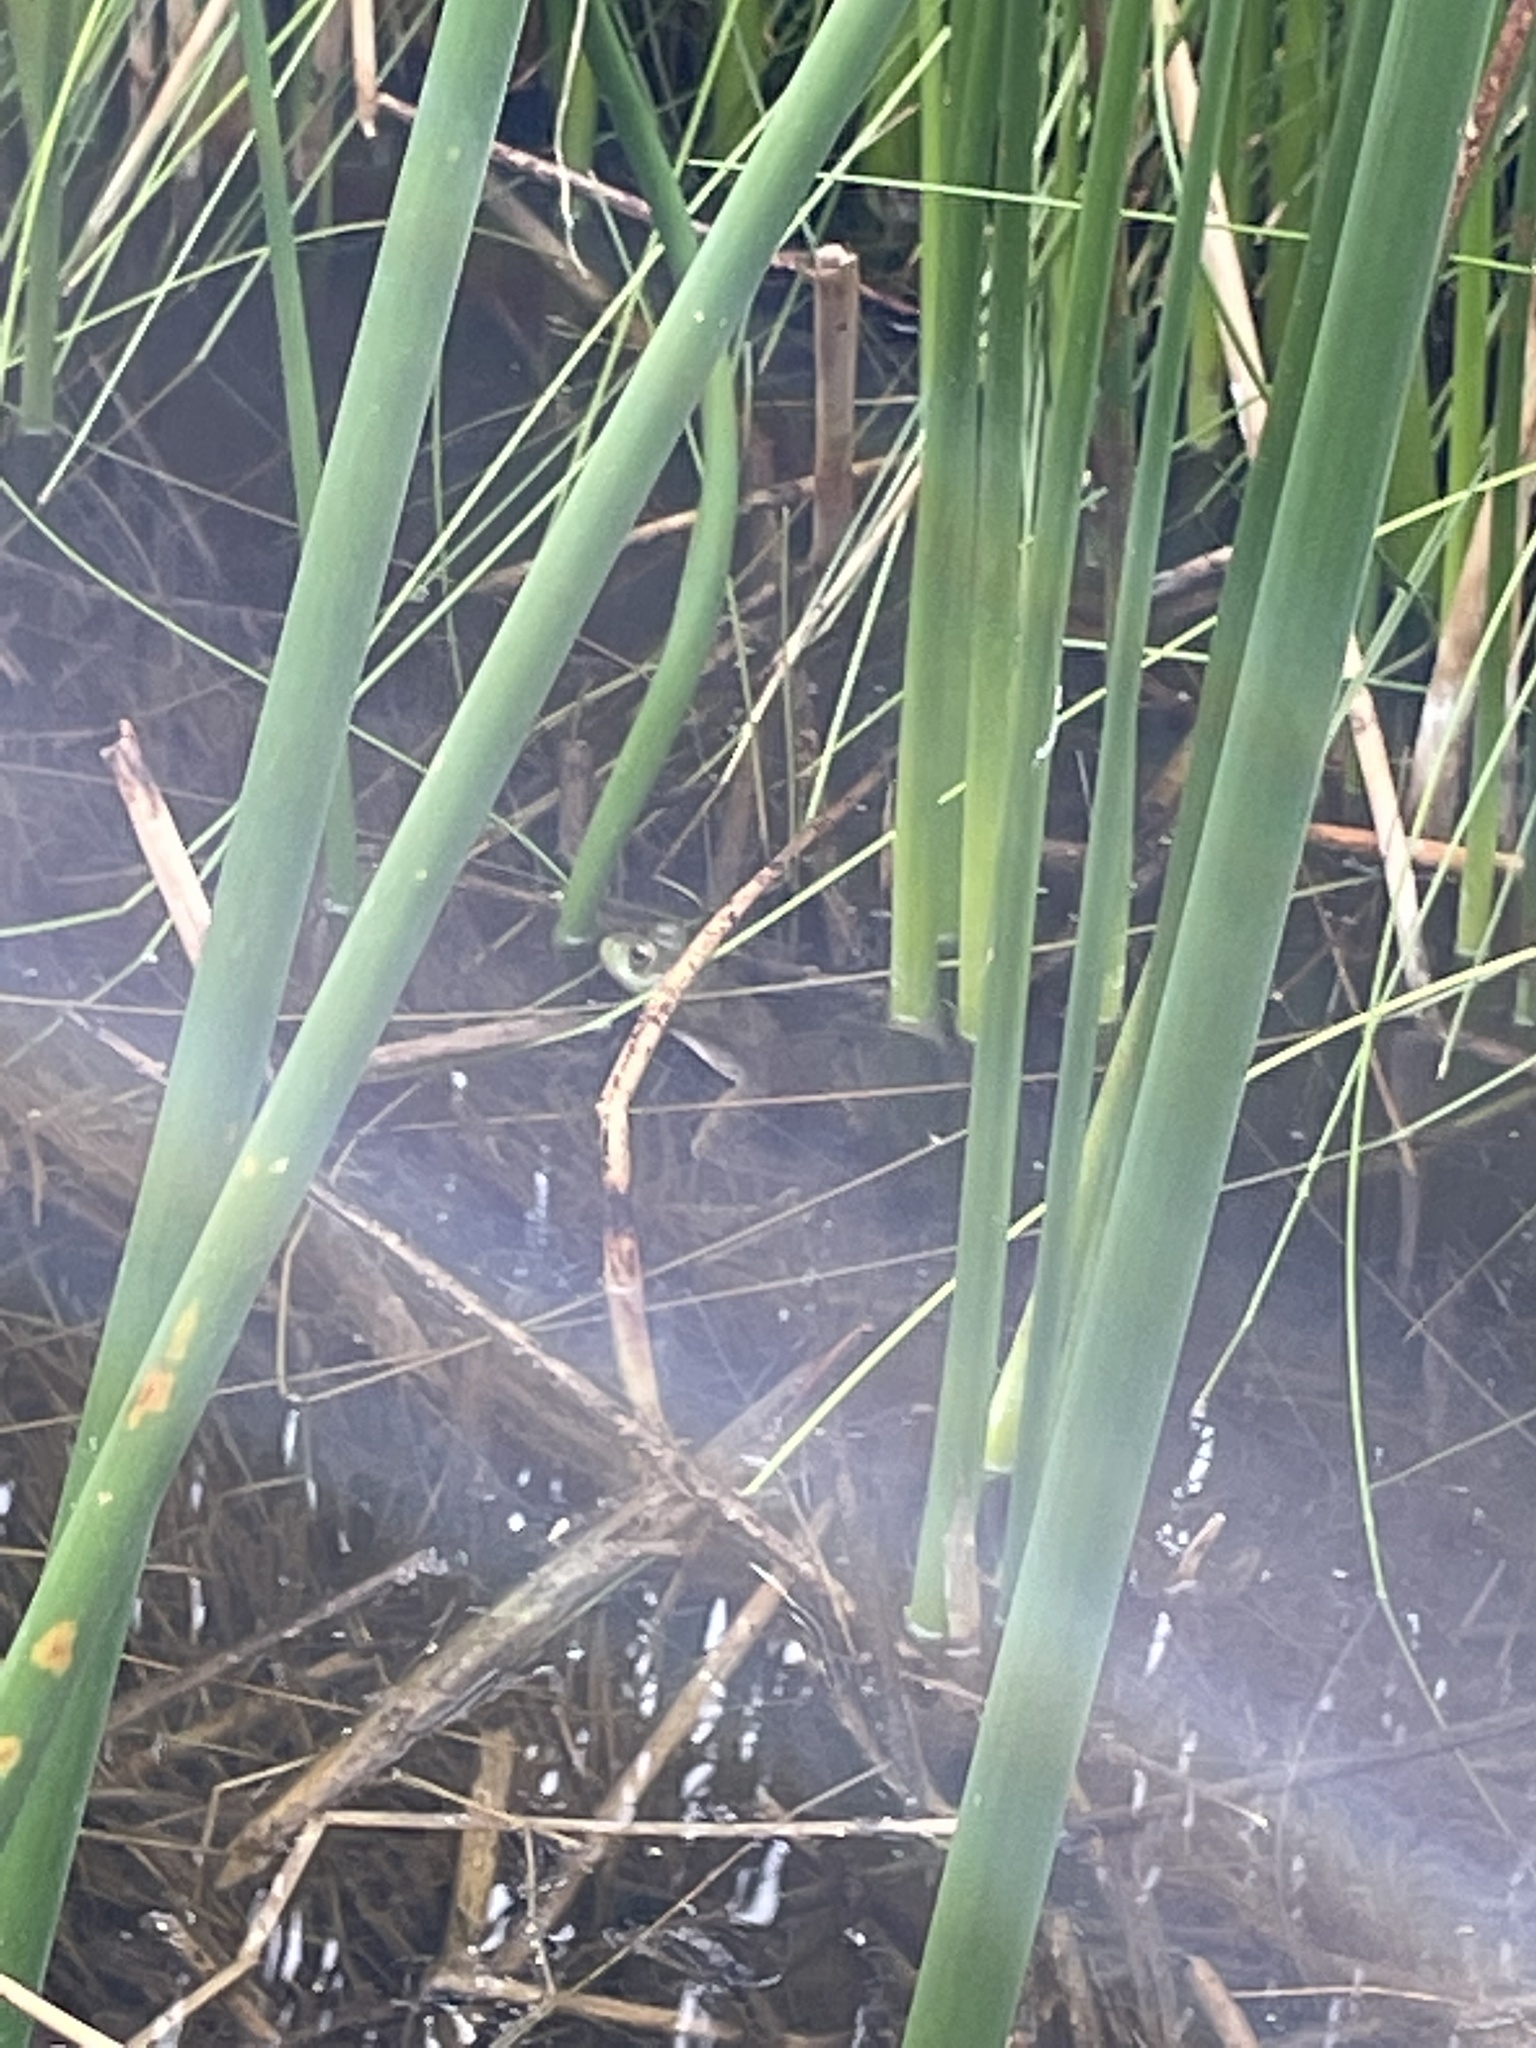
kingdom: Animalia
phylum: Chordata
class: Amphibia
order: Anura
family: Ranidae
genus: Lithobates
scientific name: Lithobates catesbeianus
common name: American bullfrog
